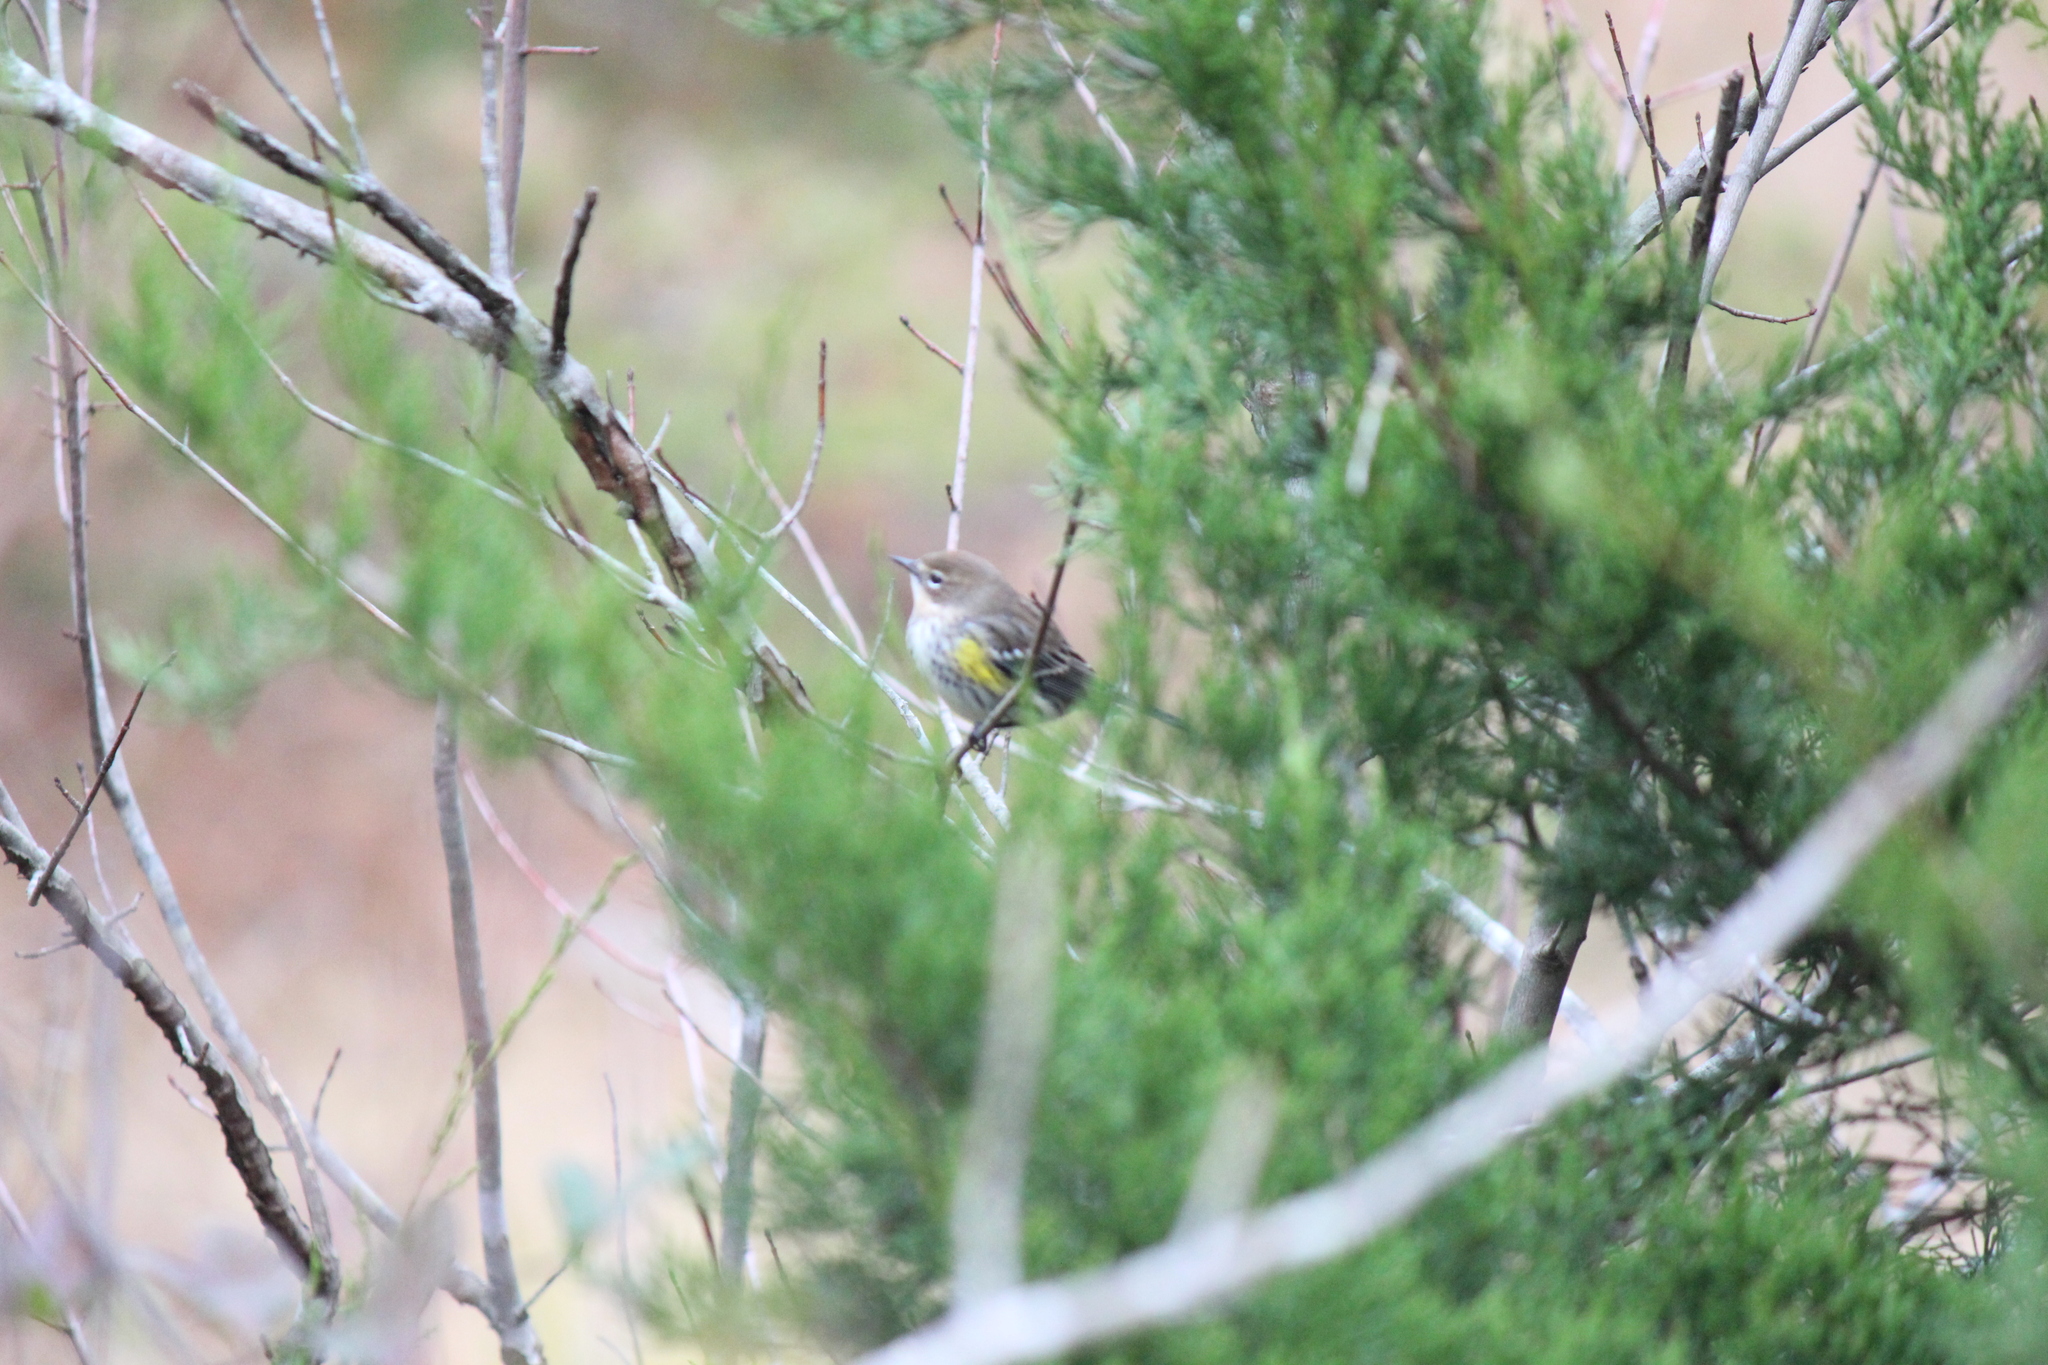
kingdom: Animalia
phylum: Chordata
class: Aves
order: Passeriformes
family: Parulidae
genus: Setophaga
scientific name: Setophaga coronata
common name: Myrtle warbler
